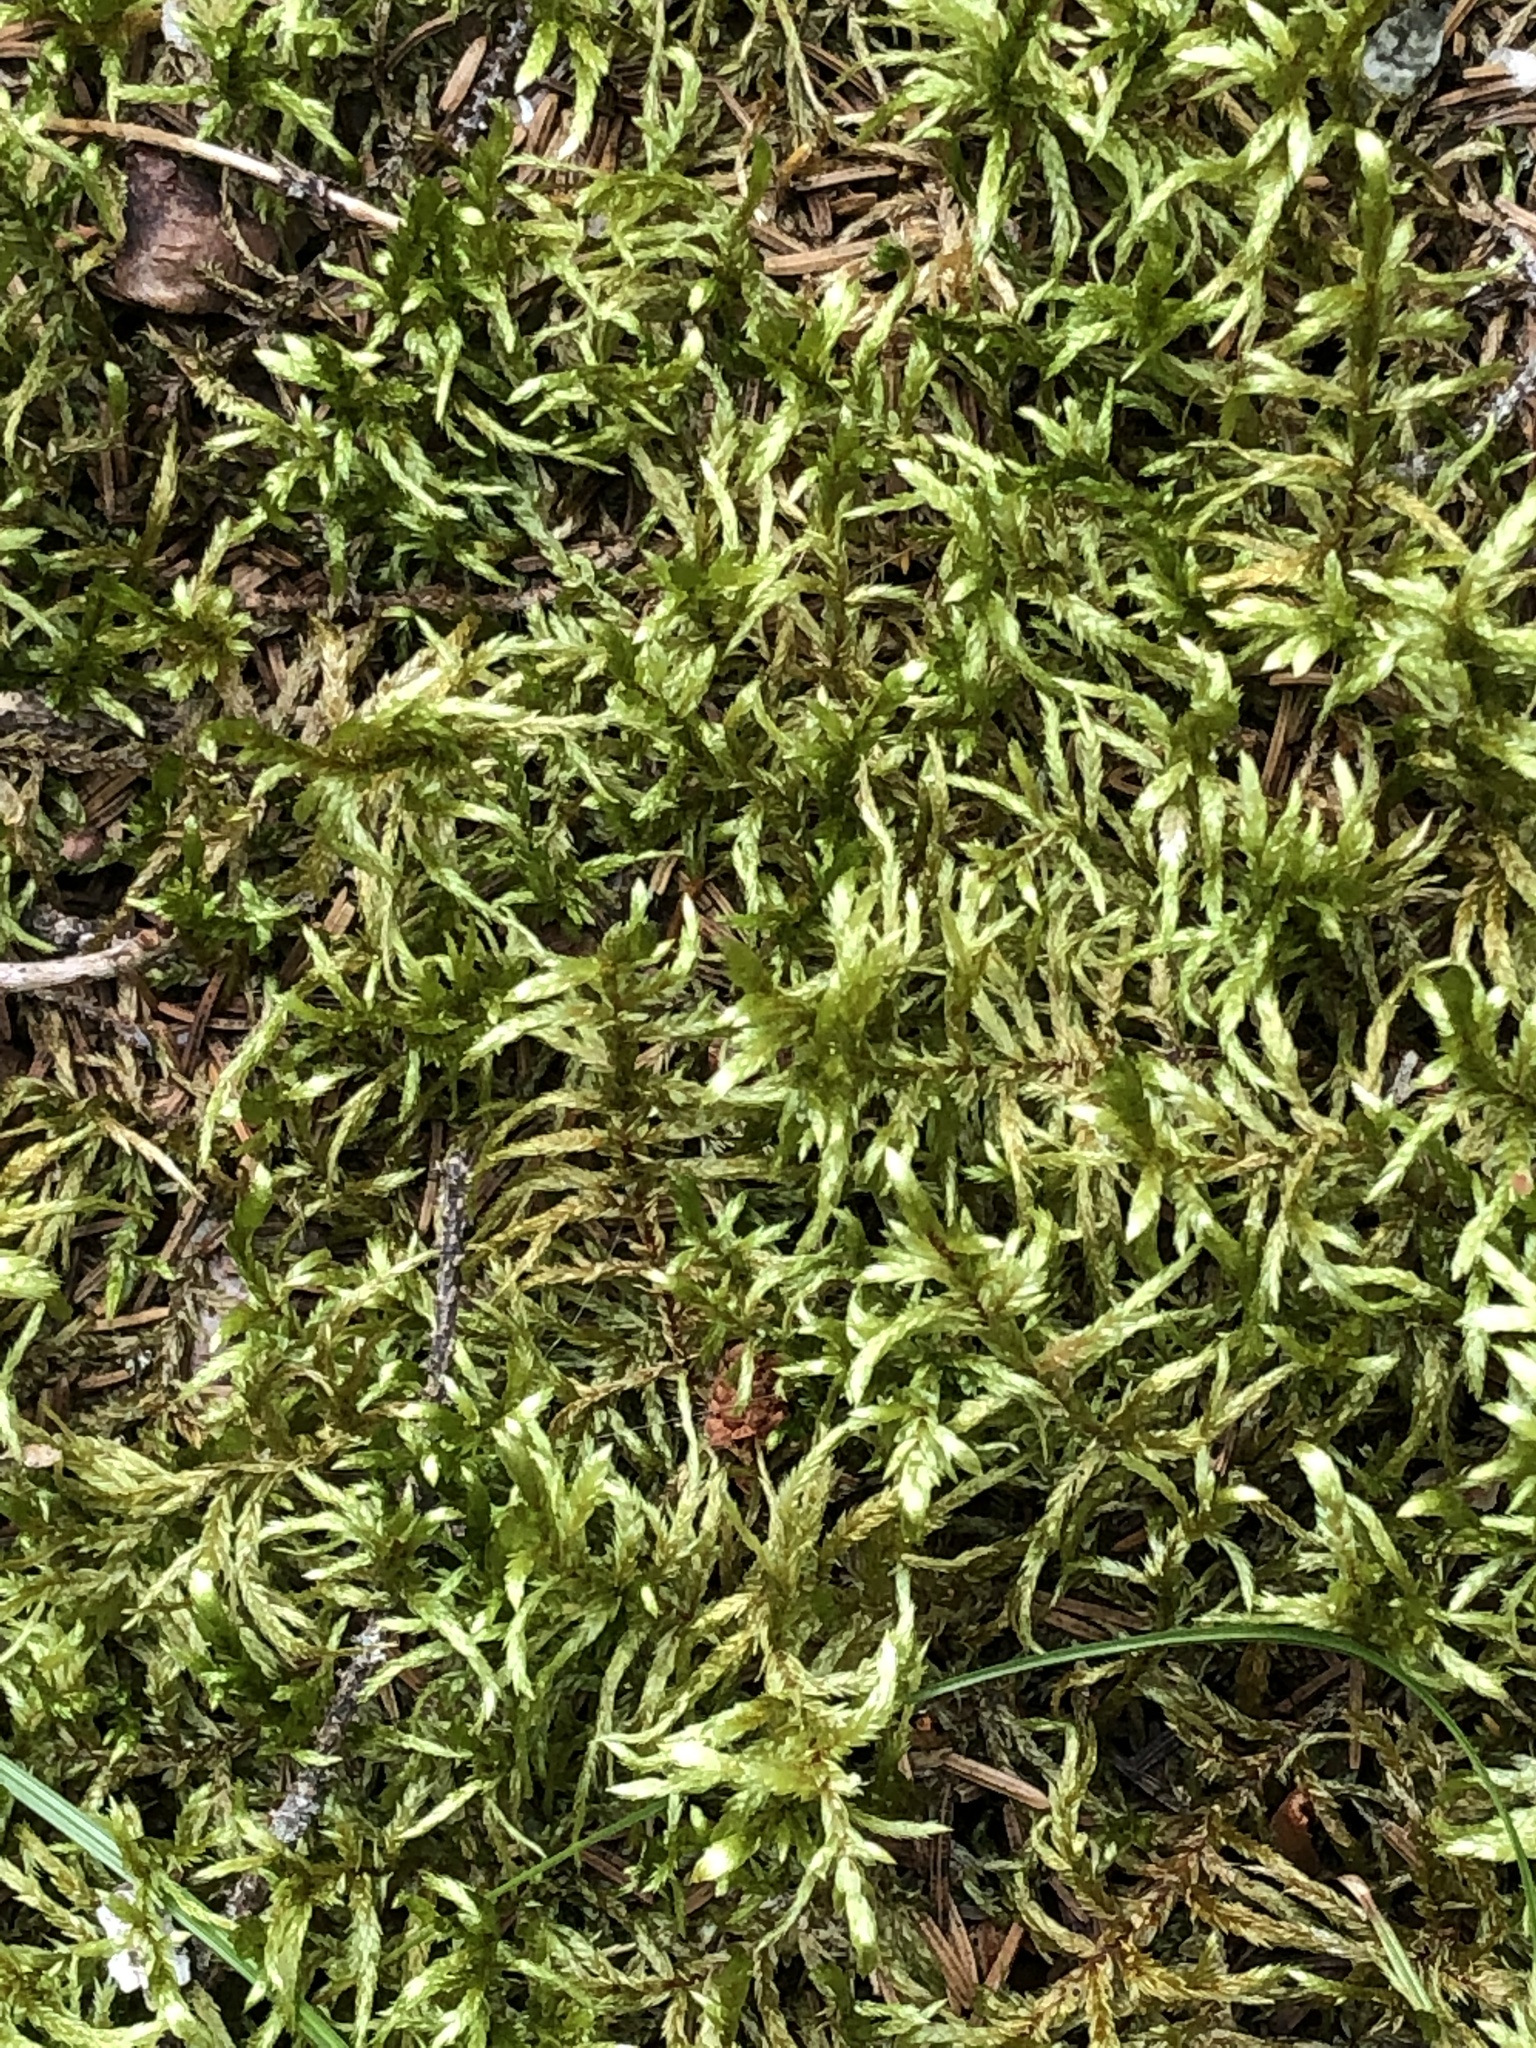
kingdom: Plantae
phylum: Bryophyta
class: Bryopsida
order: Hypnales
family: Hylocomiaceae
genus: Pleurozium
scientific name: Pleurozium schreberi
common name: Red-stemmed feather moss
